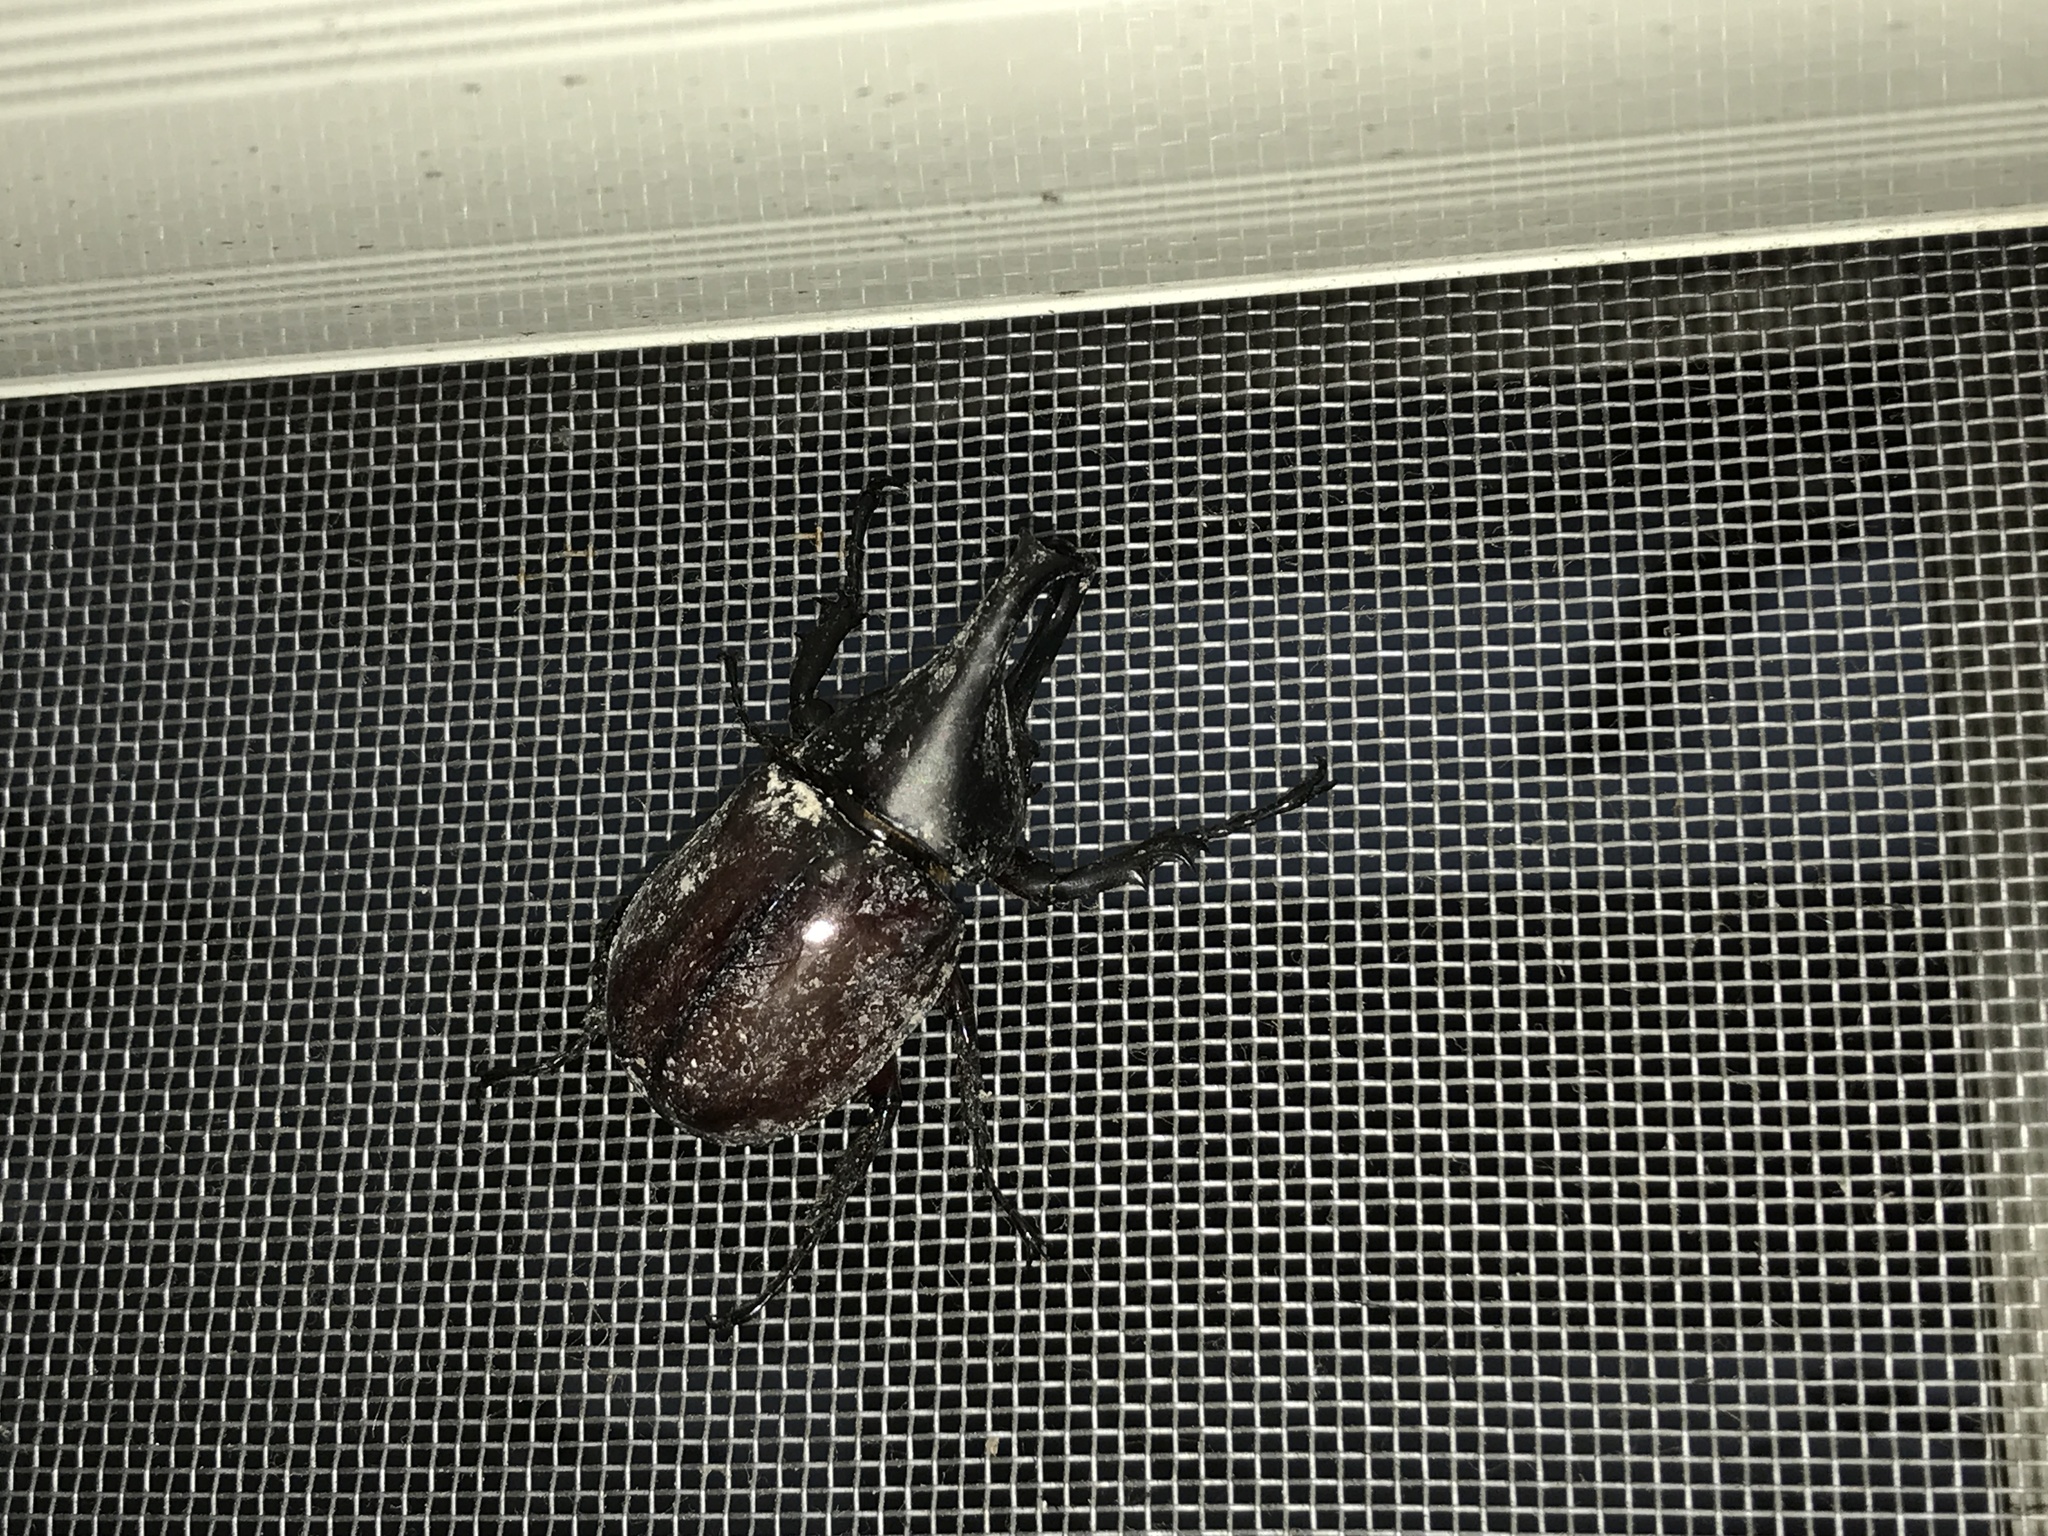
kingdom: Animalia
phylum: Arthropoda
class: Insecta
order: Coleoptera
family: Scarabaeidae
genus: Xylotrupes
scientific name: Xylotrupes philippinensis
